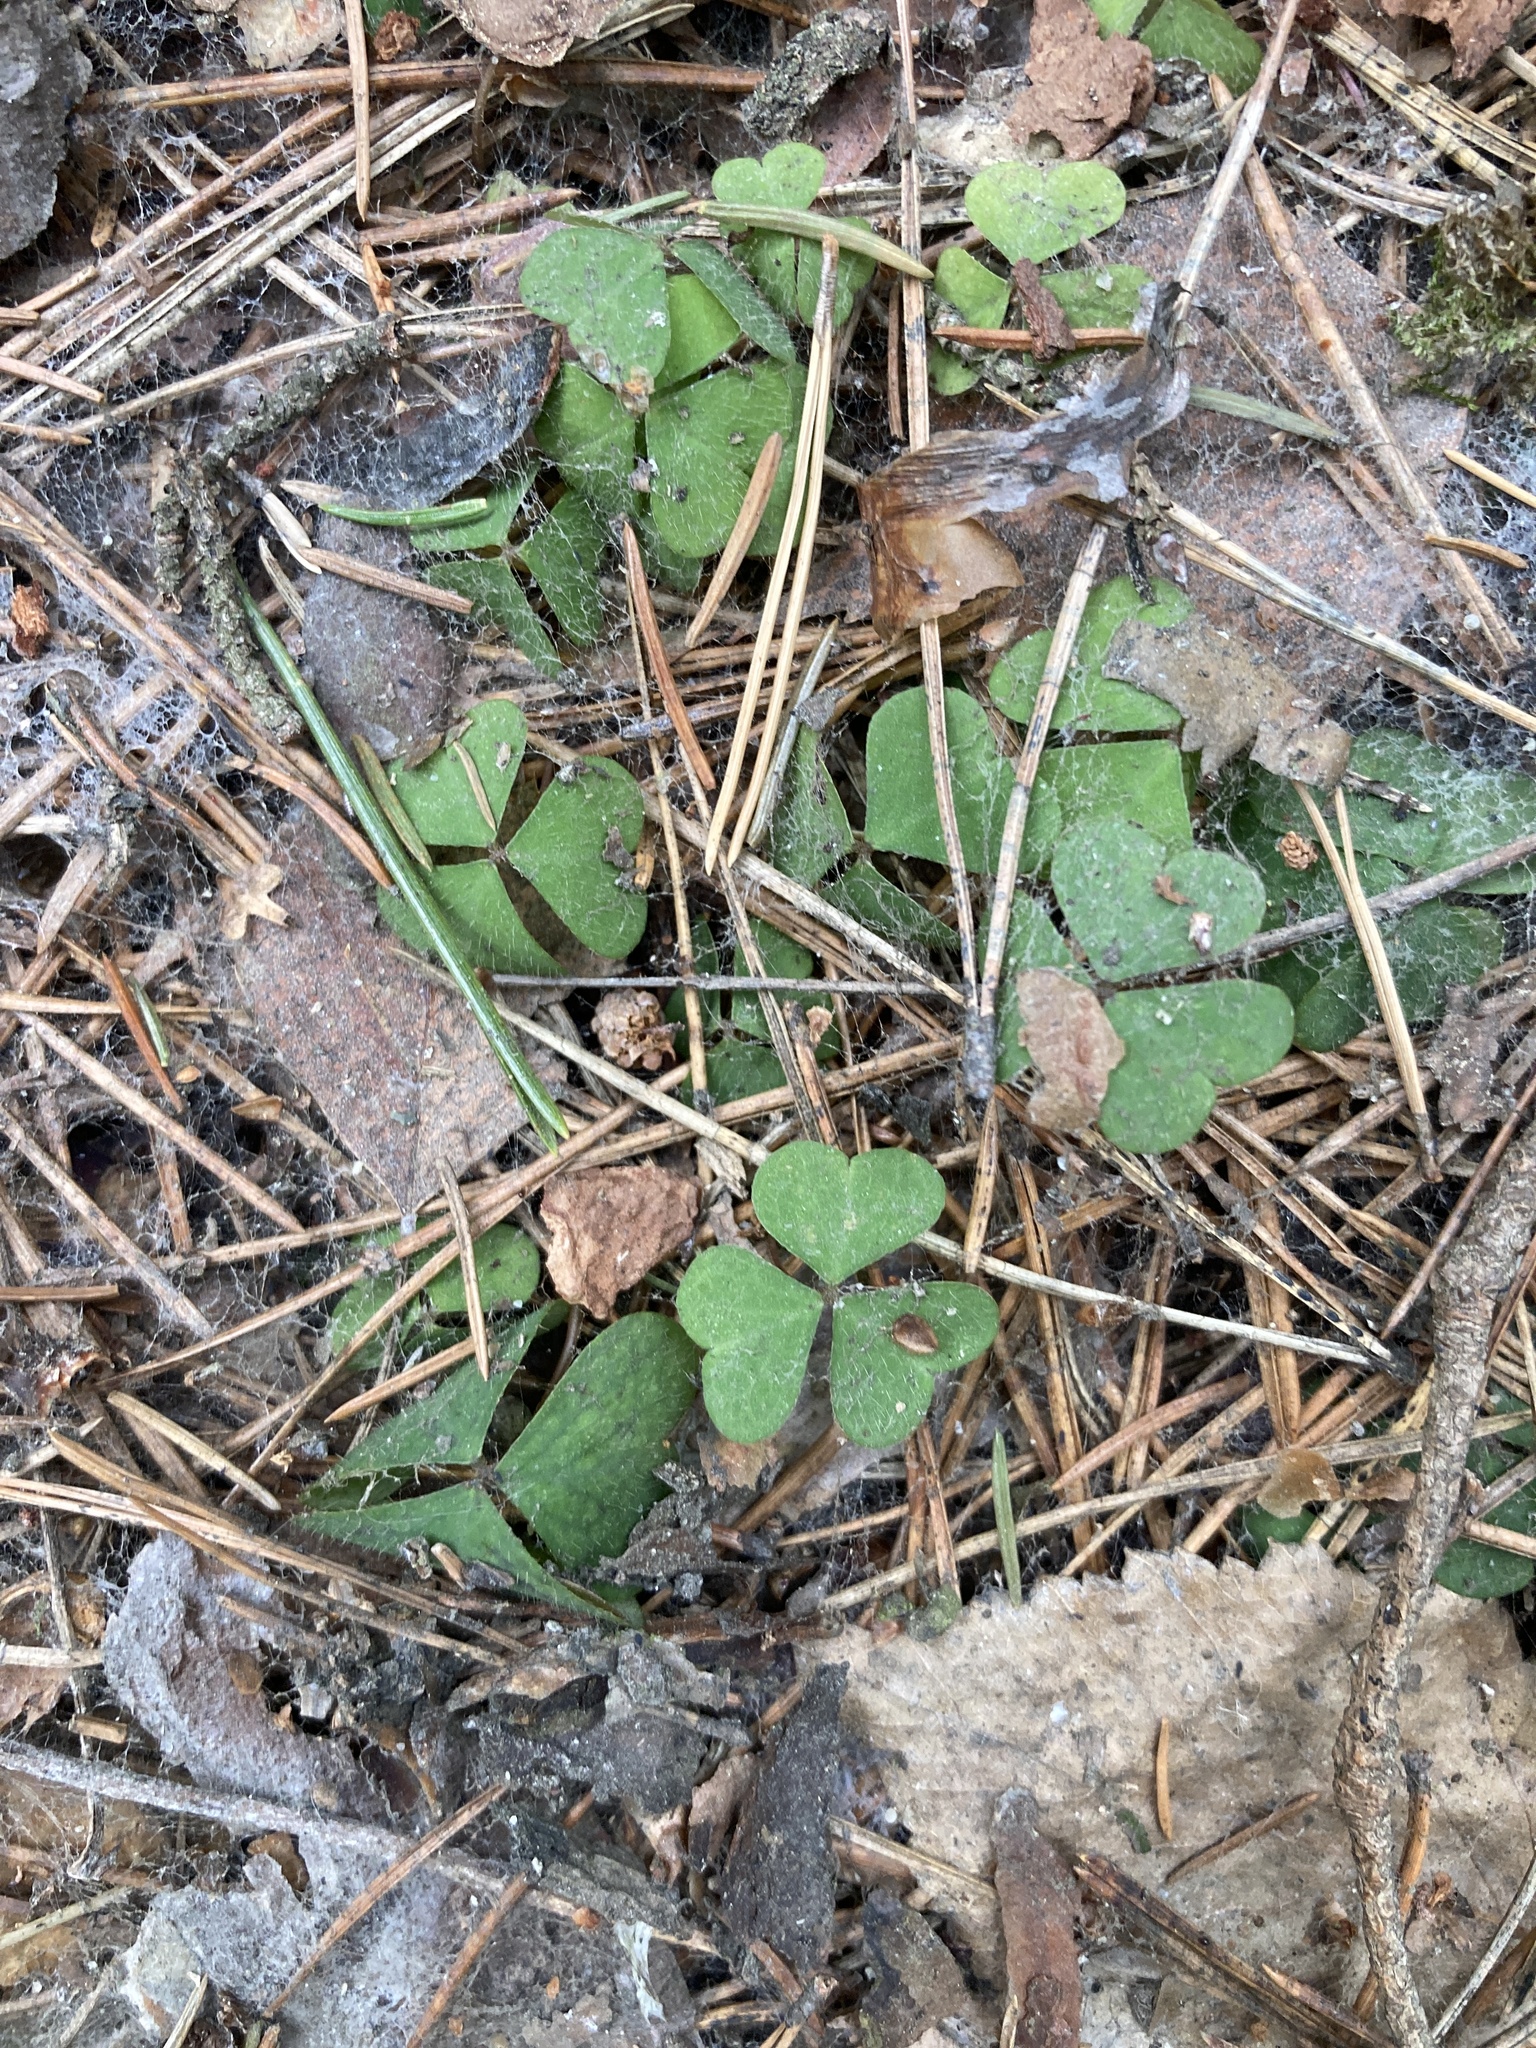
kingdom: Plantae
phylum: Tracheophyta
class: Magnoliopsida
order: Oxalidales
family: Oxalidaceae
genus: Oxalis
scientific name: Oxalis acetosella
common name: Wood-sorrel
